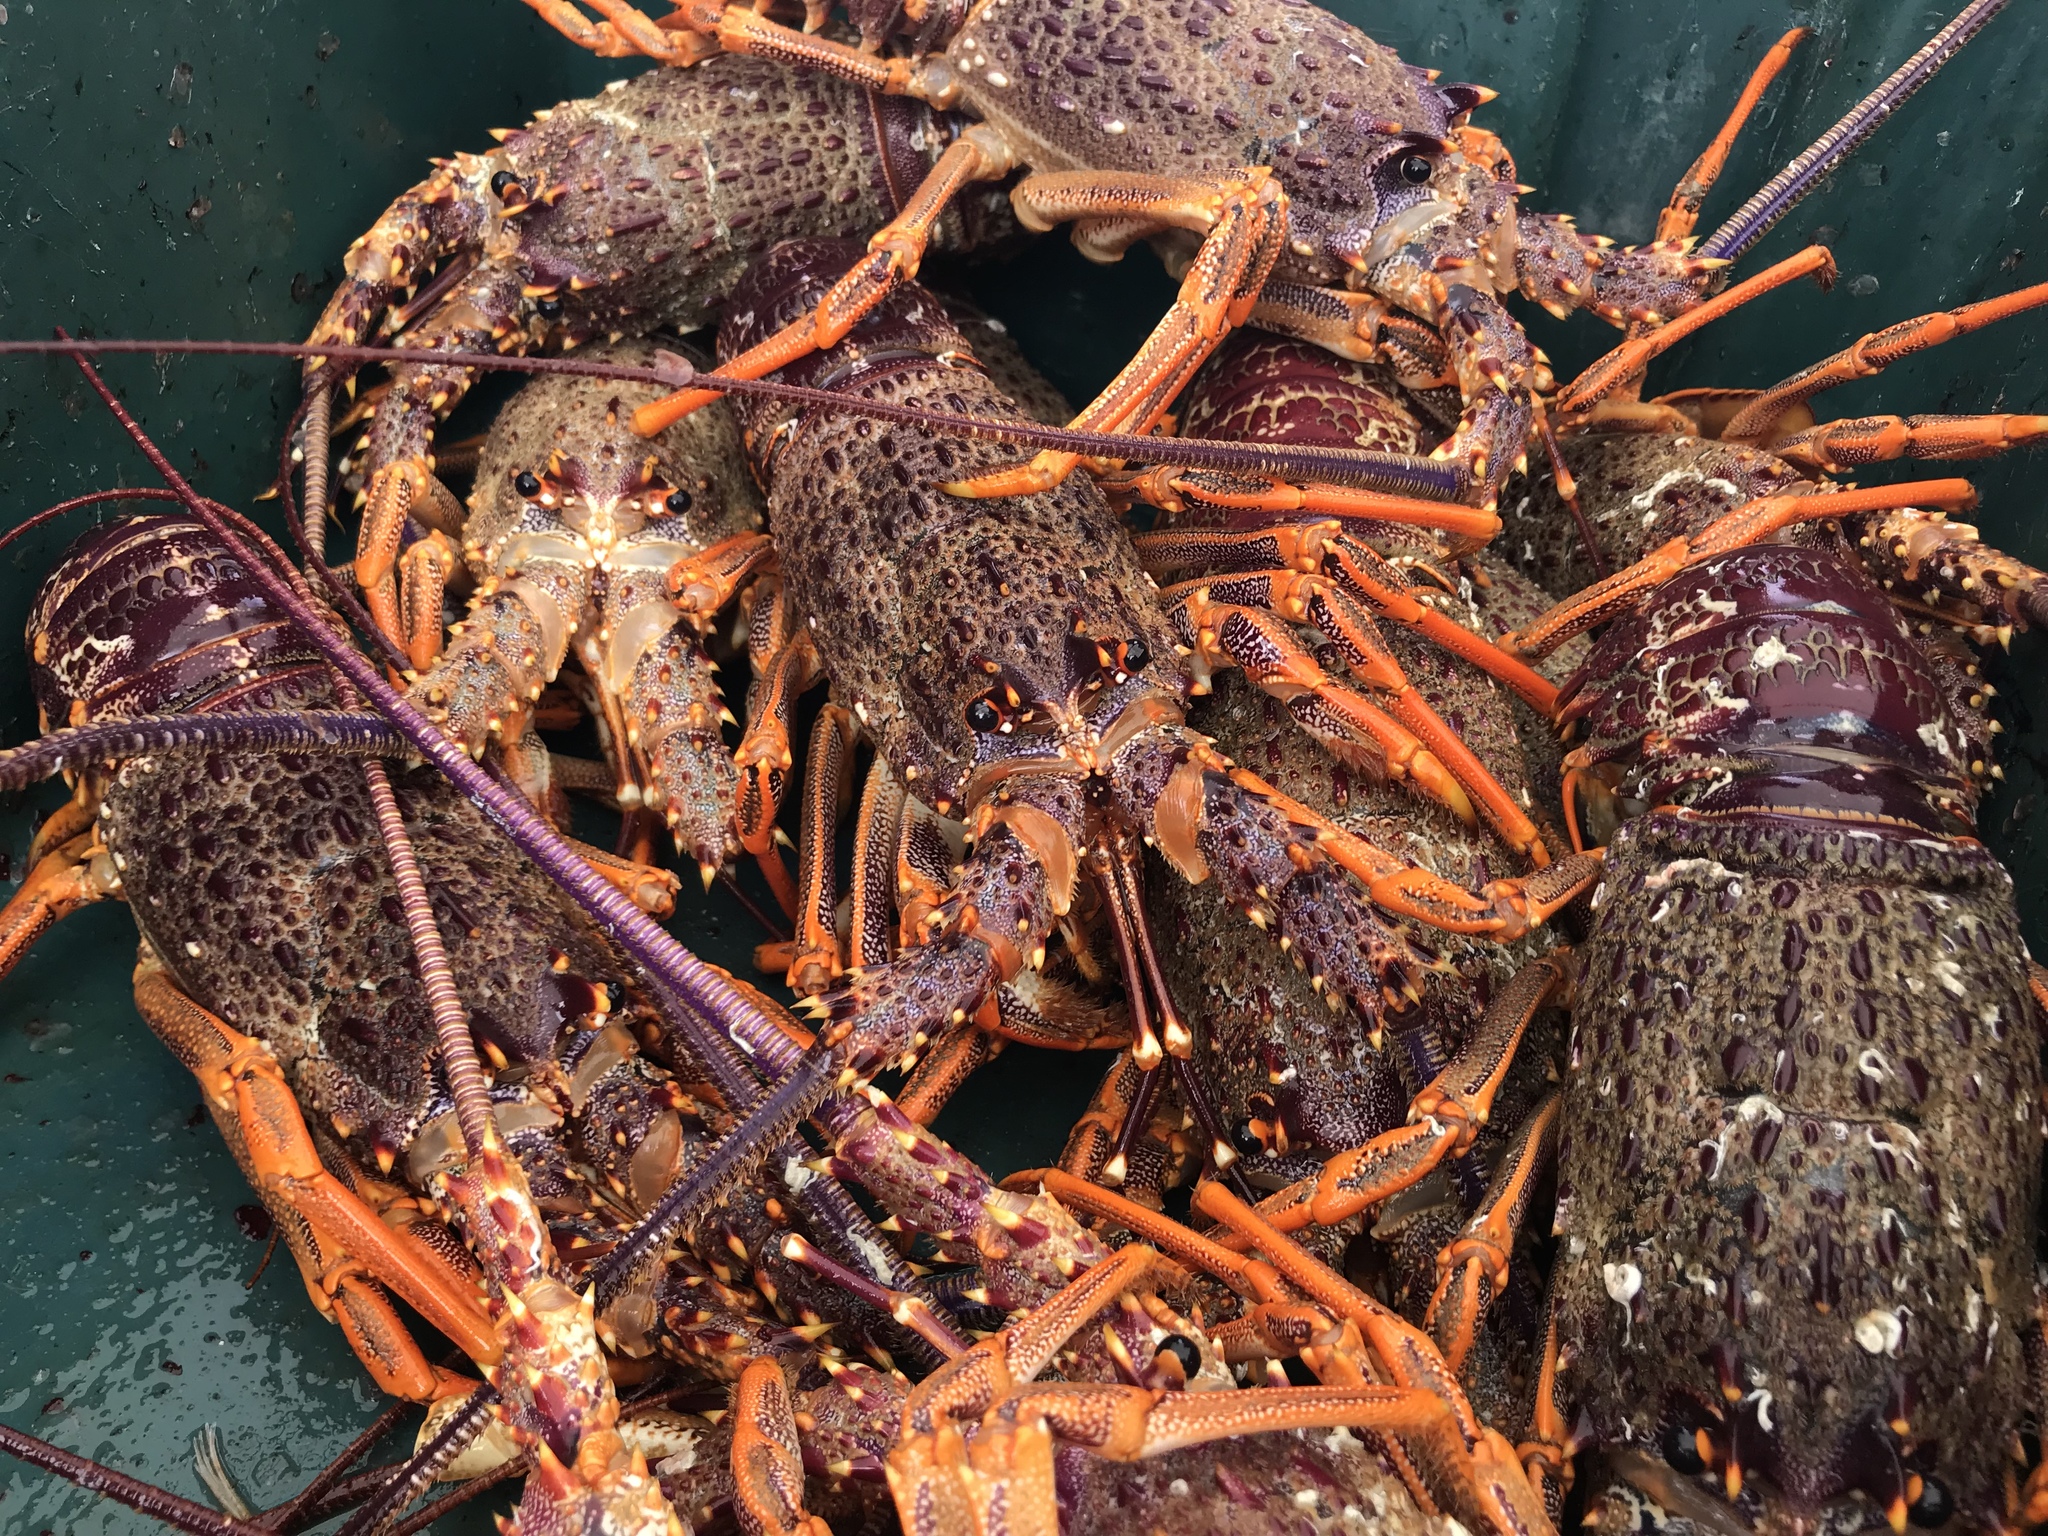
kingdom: Animalia
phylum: Arthropoda
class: Malacostraca
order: Decapoda
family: Palinuridae
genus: Jasus
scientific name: Jasus edwardsii
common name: Red rock lobster
